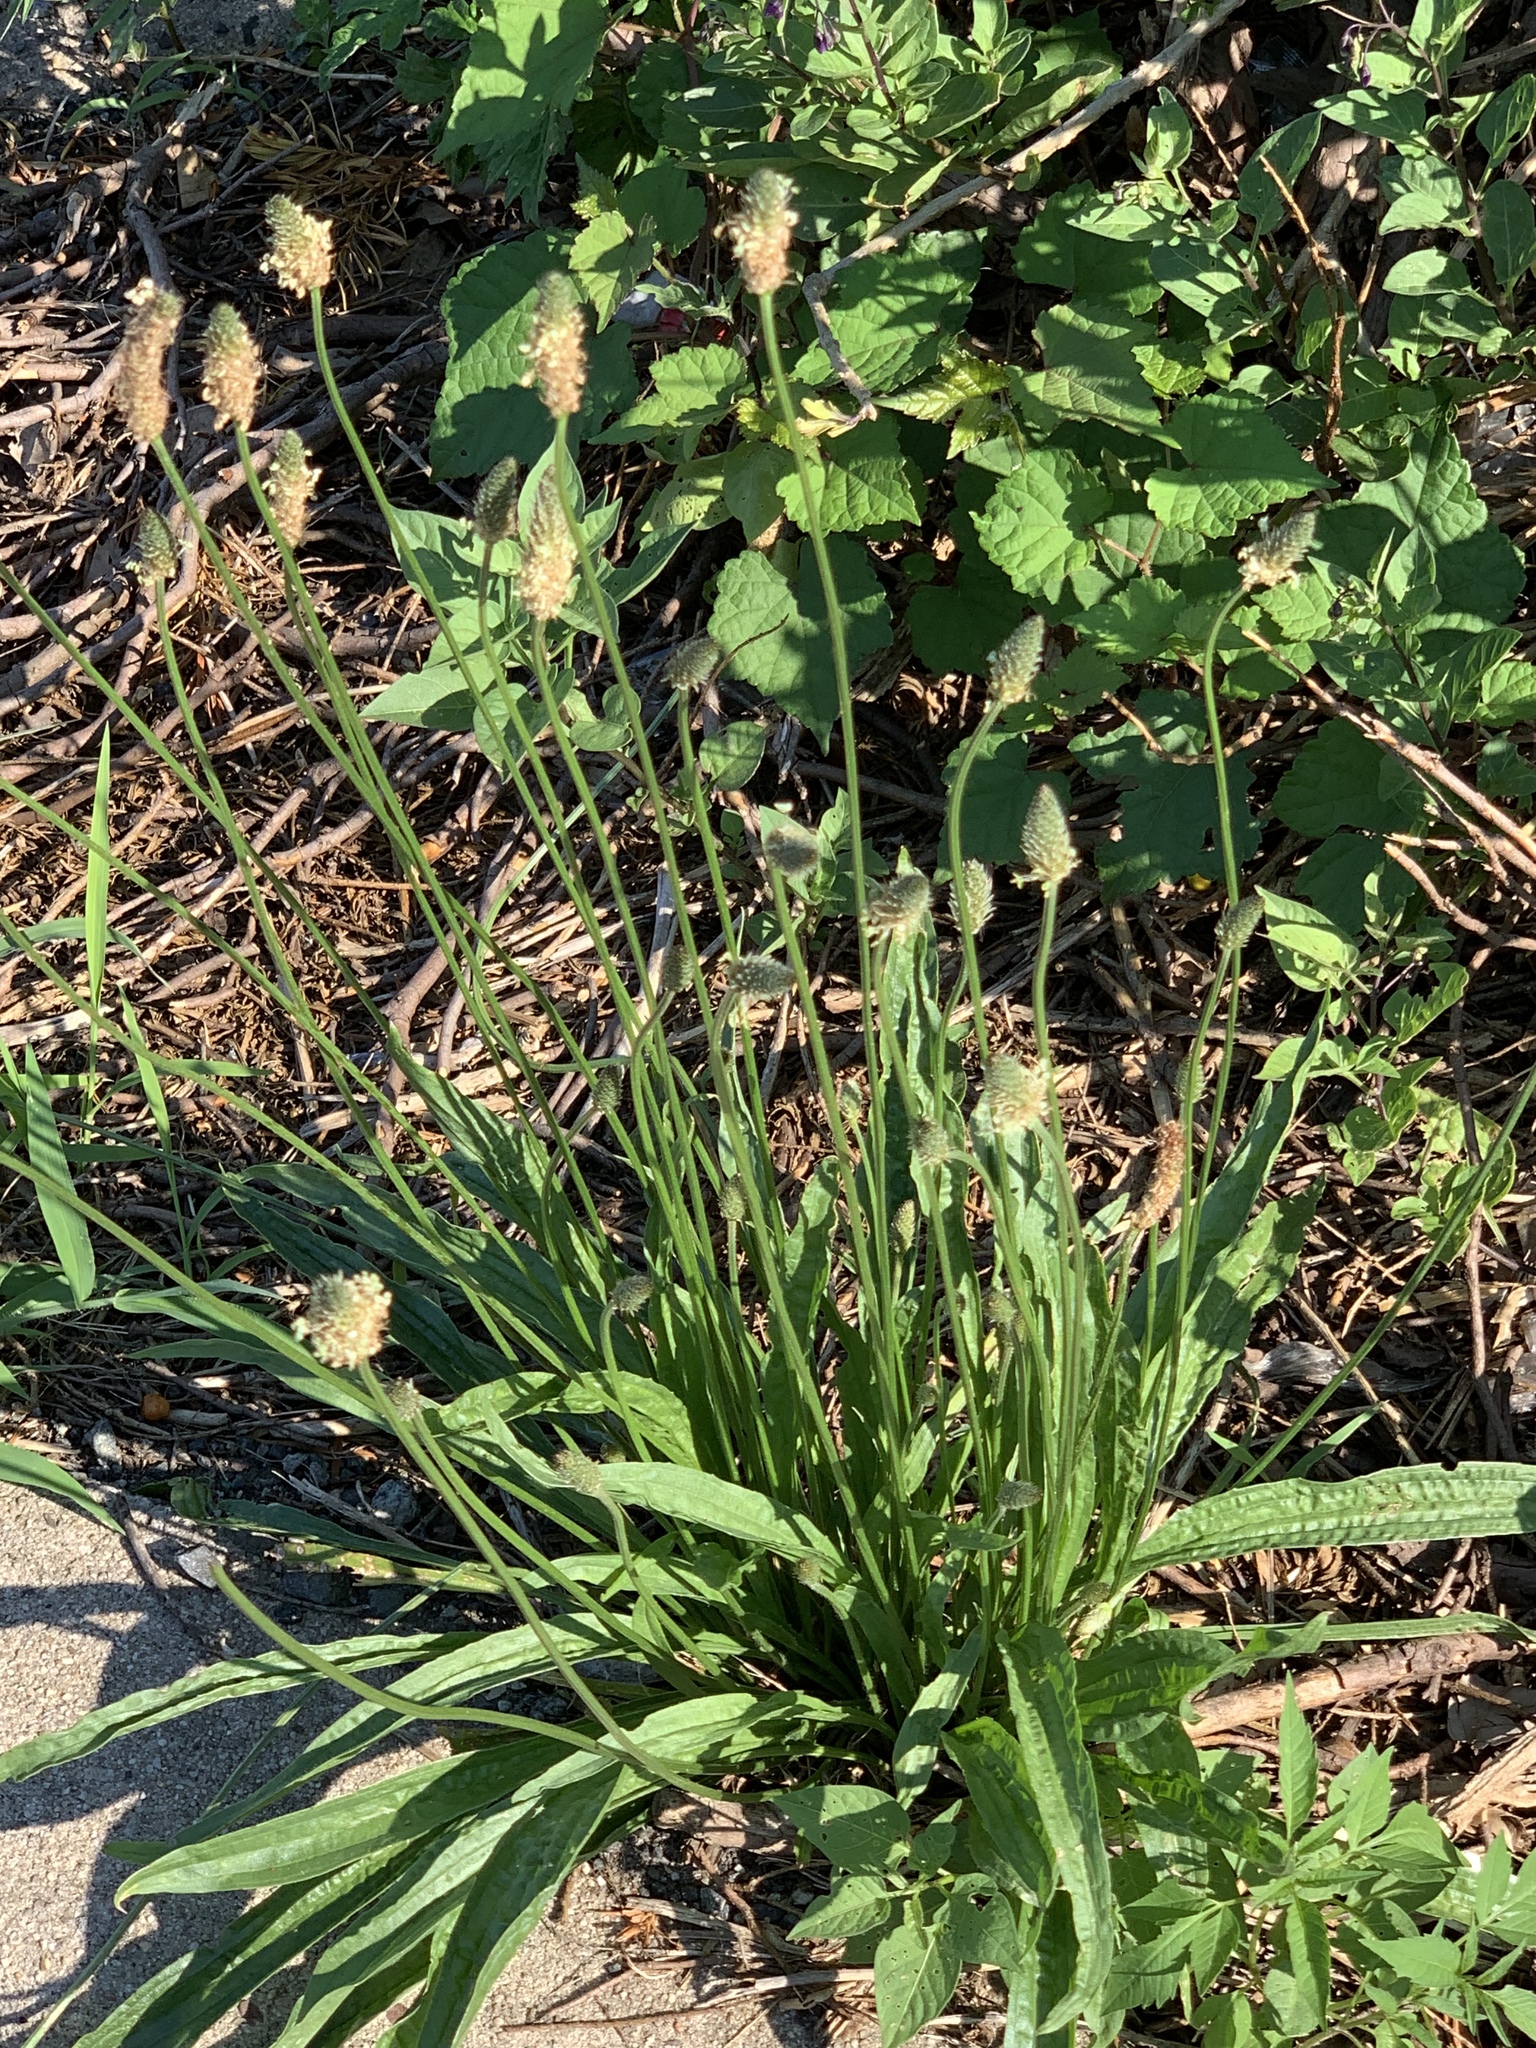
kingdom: Plantae
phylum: Tracheophyta
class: Magnoliopsida
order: Lamiales
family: Plantaginaceae
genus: Plantago
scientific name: Plantago lanceolata
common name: Ribwort plantain
